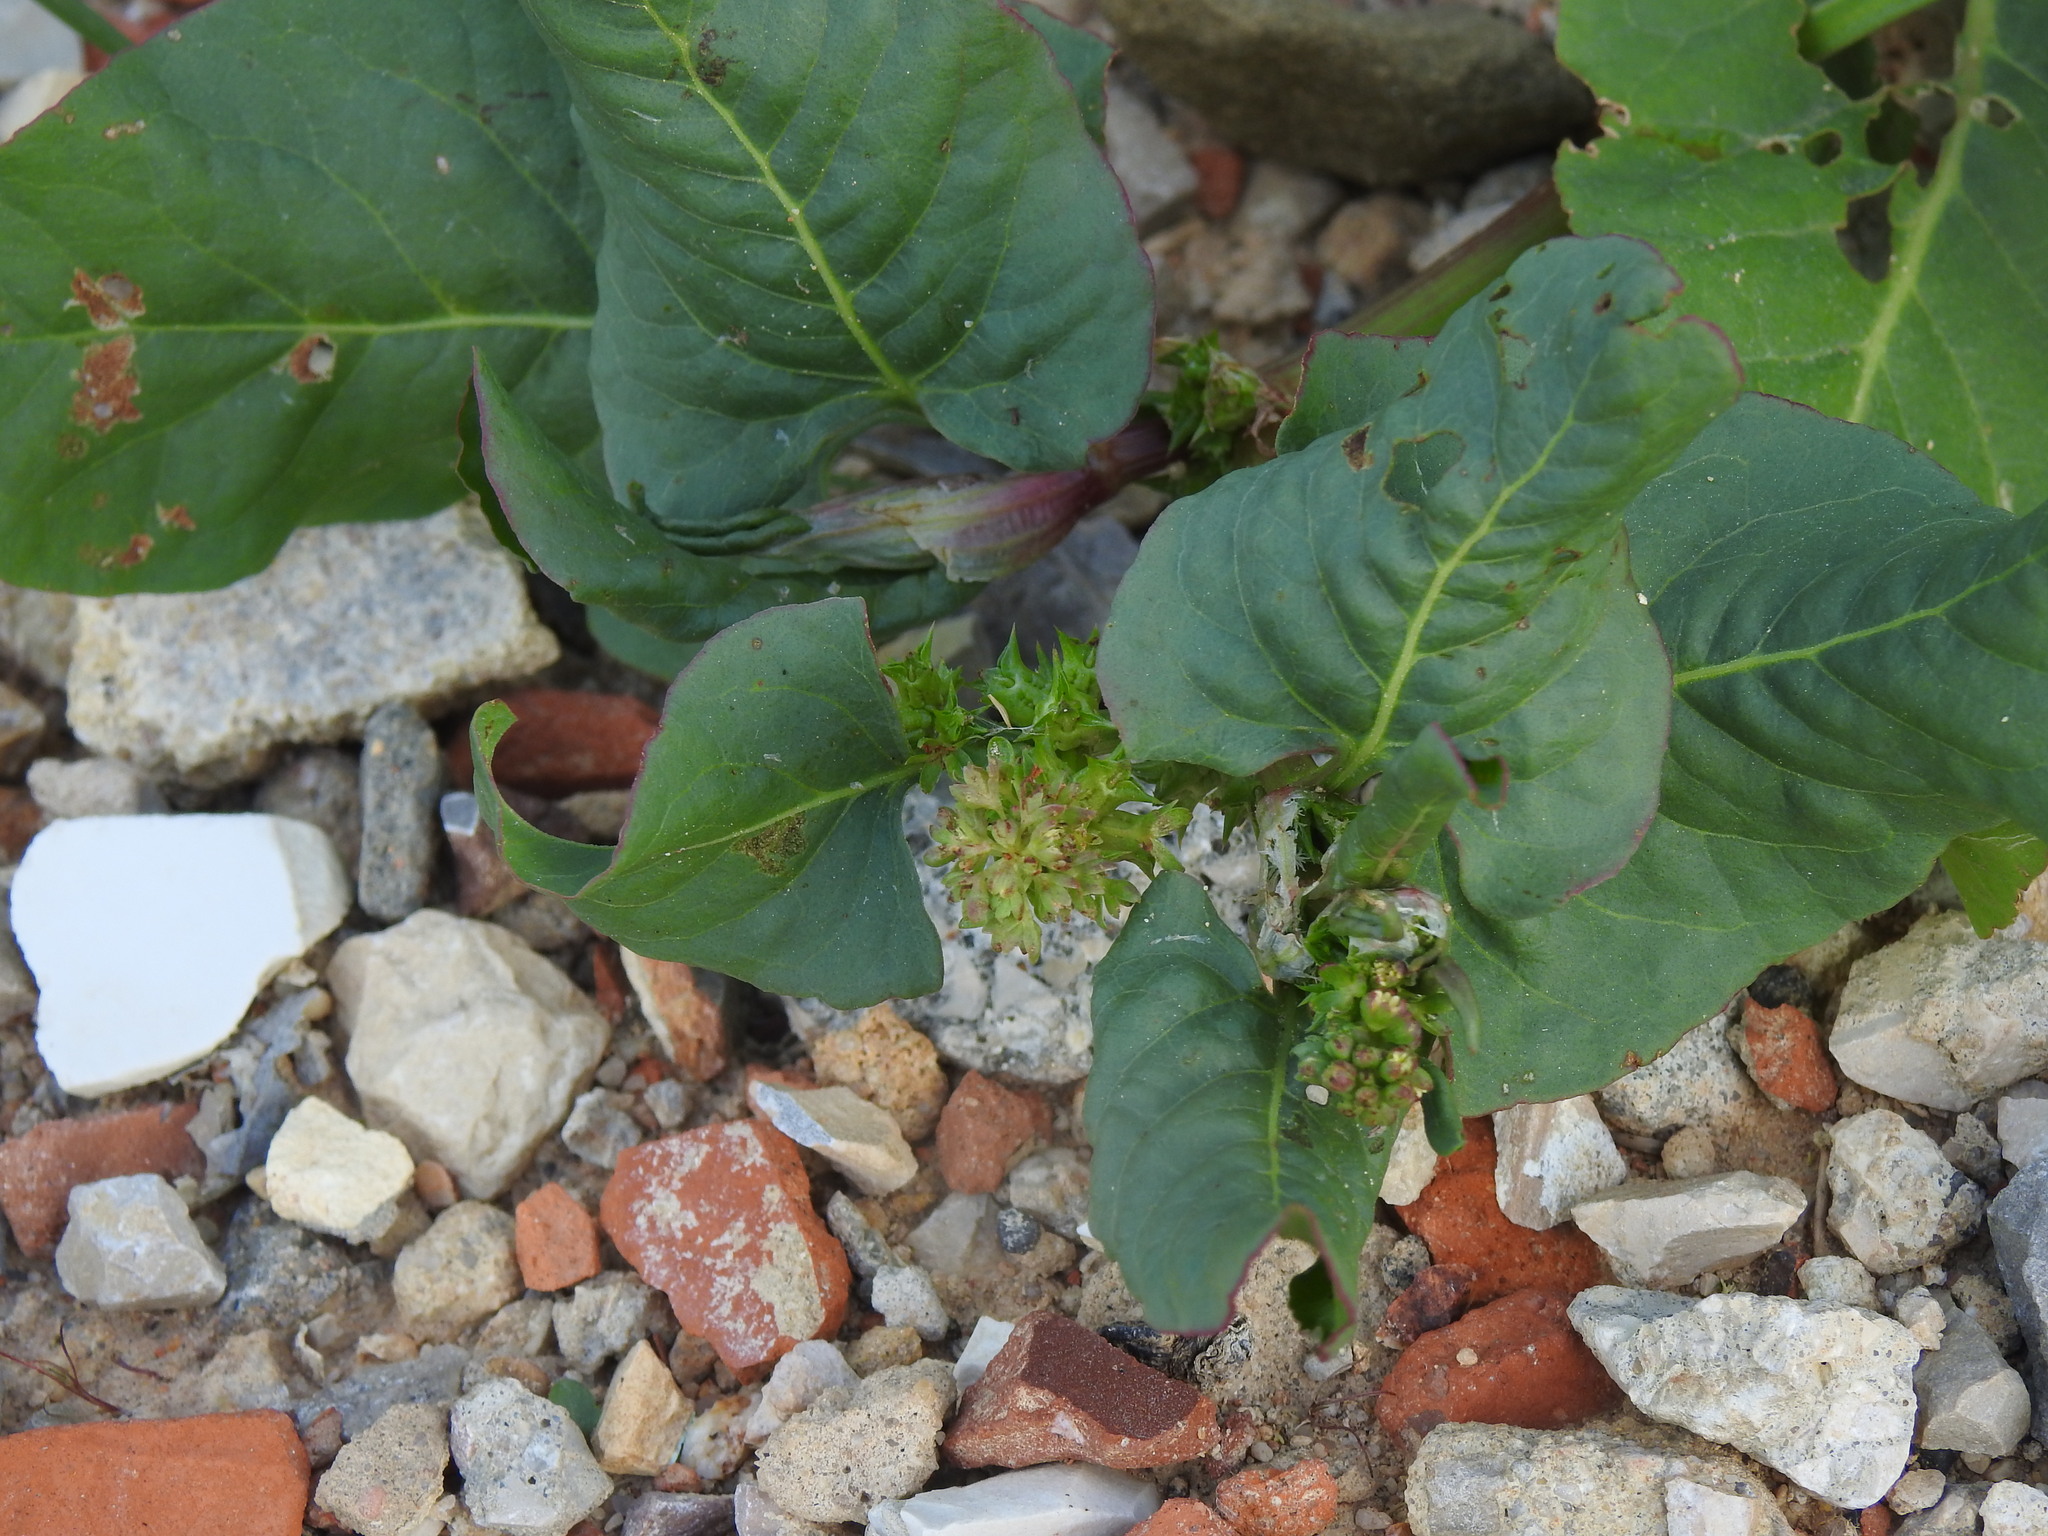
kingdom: Plantae
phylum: Tracheophyta
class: Magnoliopsida
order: Caryophyllales
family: Polygonaceae
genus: Rumex
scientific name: Rumex spinosus
